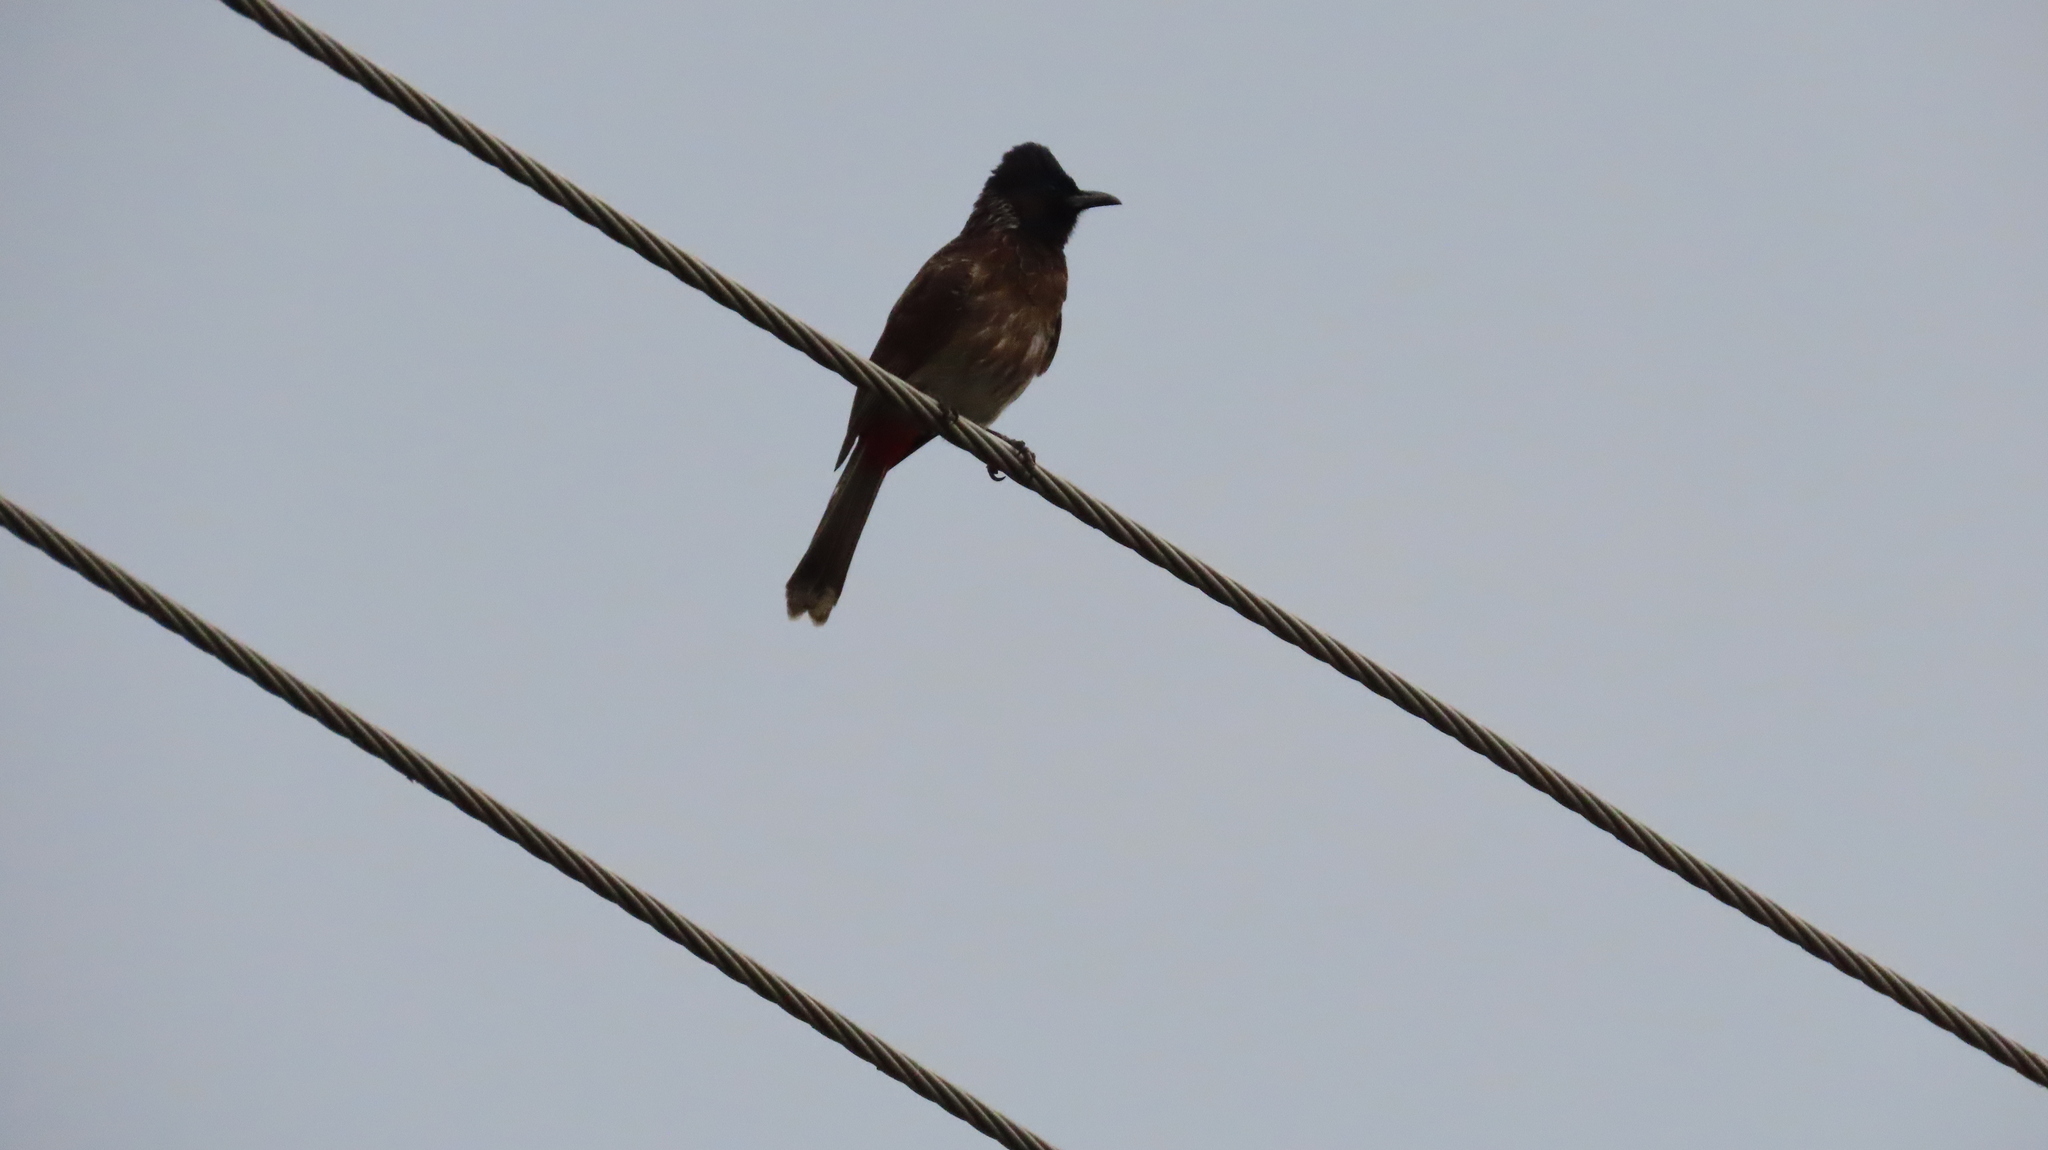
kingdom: Animalia
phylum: Chordata
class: Aves
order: Passeriformes
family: Pycnonotidae
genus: Pycnonotus
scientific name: Pycnonotus cafer
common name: Red-vented bulbul
